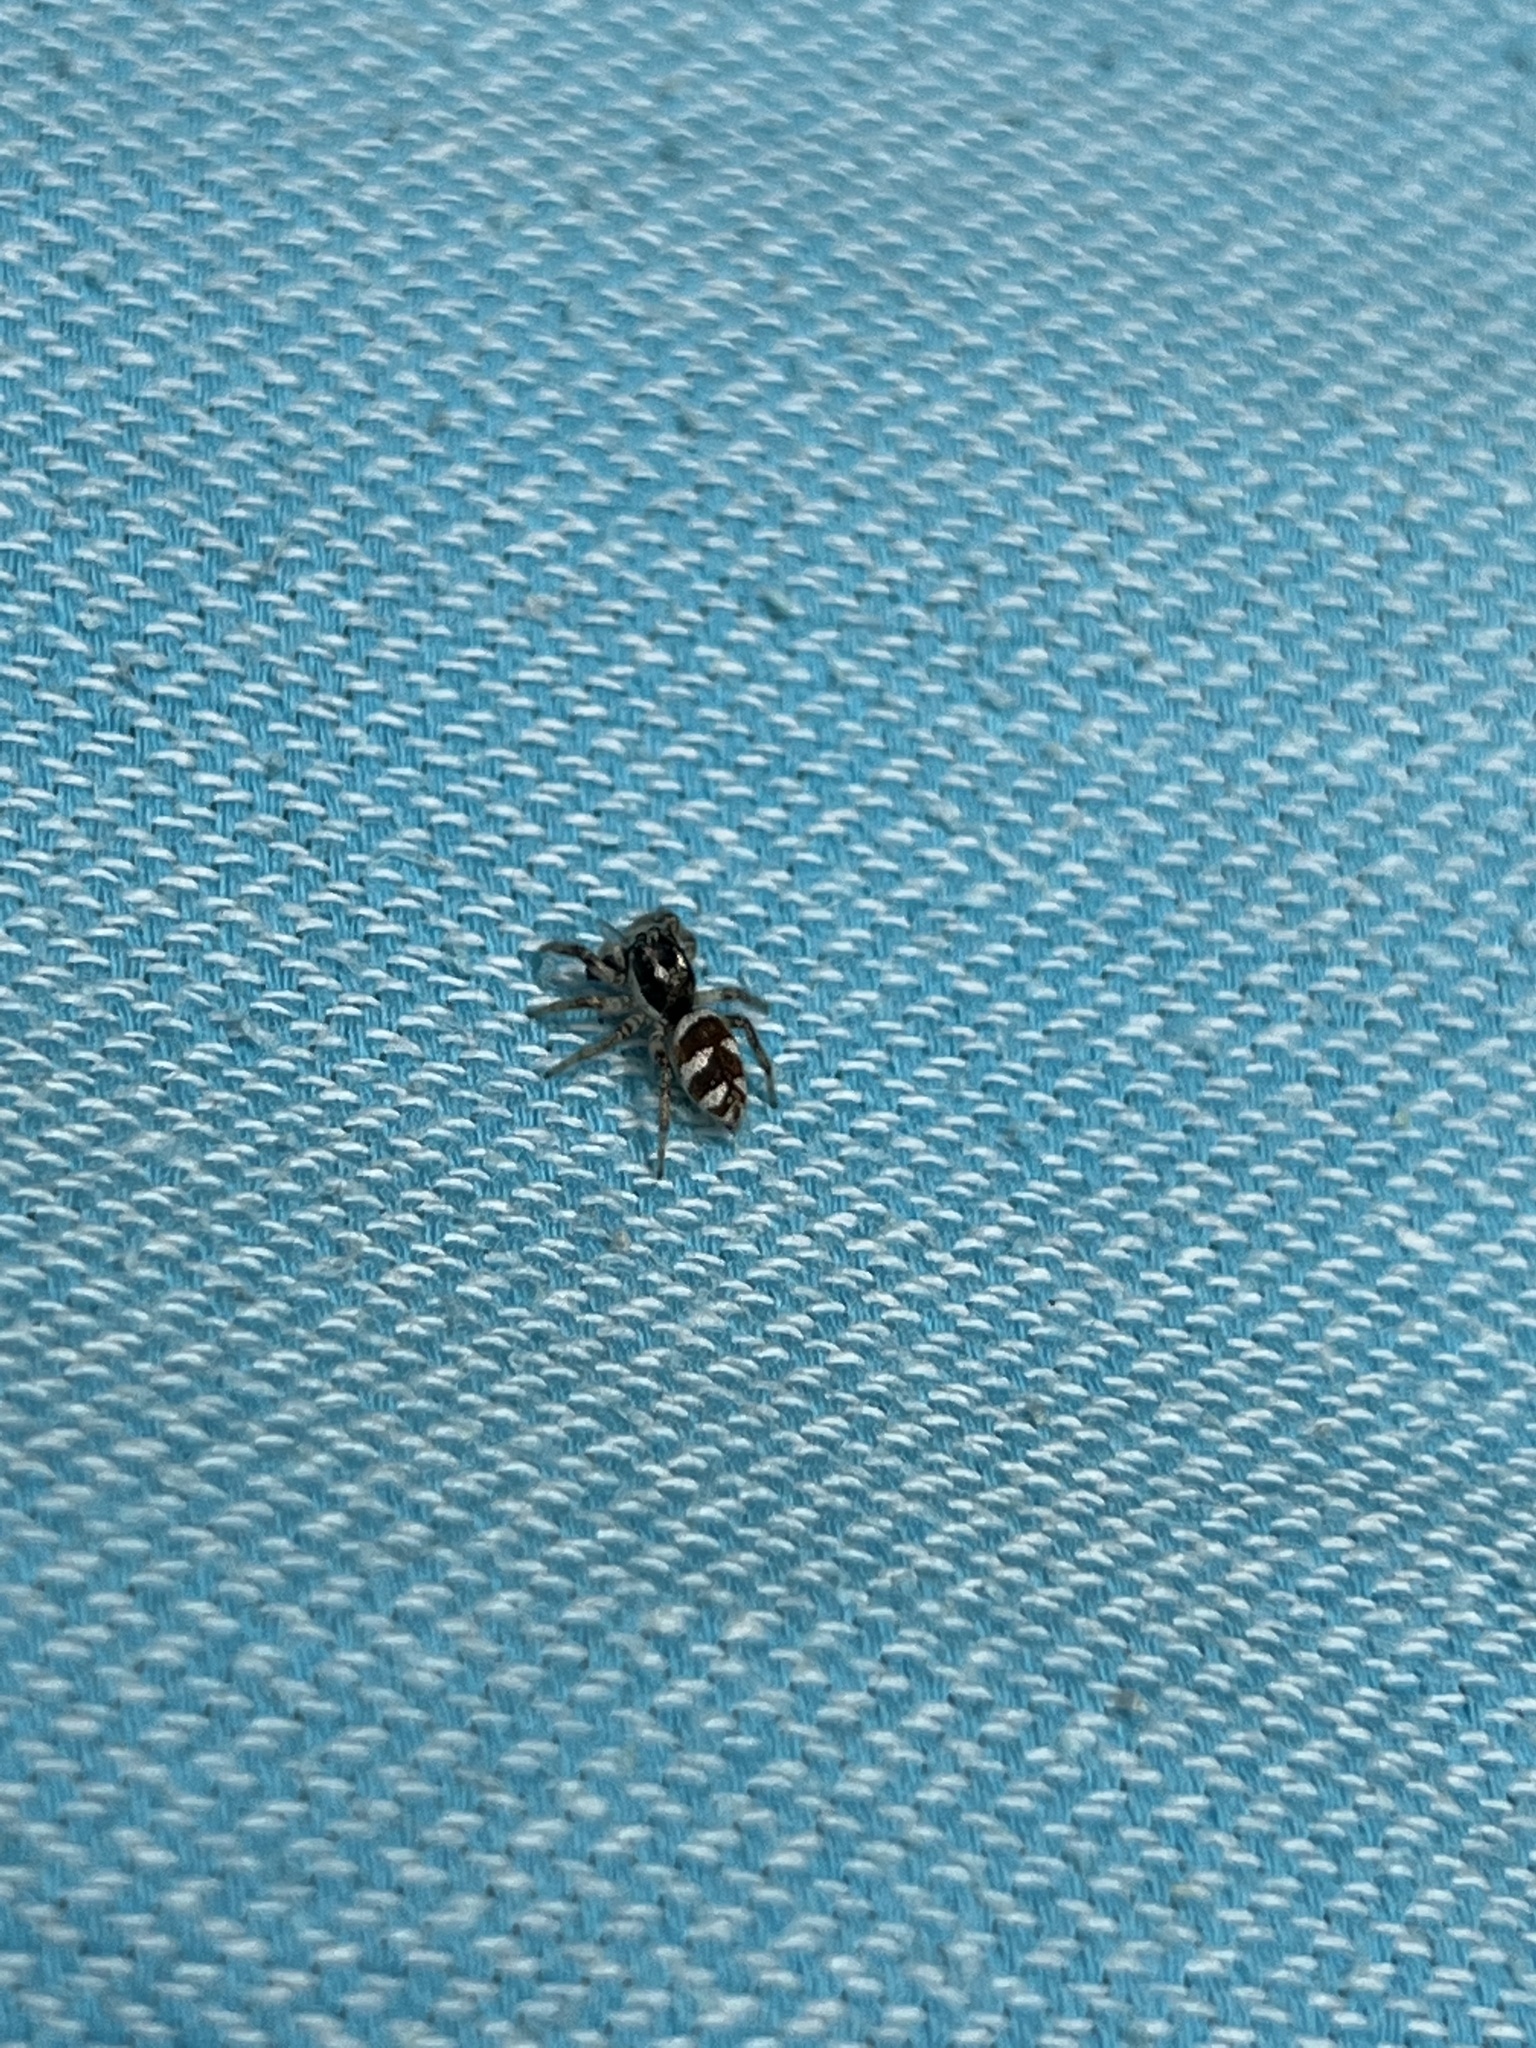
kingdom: Animalia
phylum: Arthropoda
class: Arachnida
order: Araneae
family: Salticidae
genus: Salticus
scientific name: Salticus scenicus
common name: Zebra jumper
